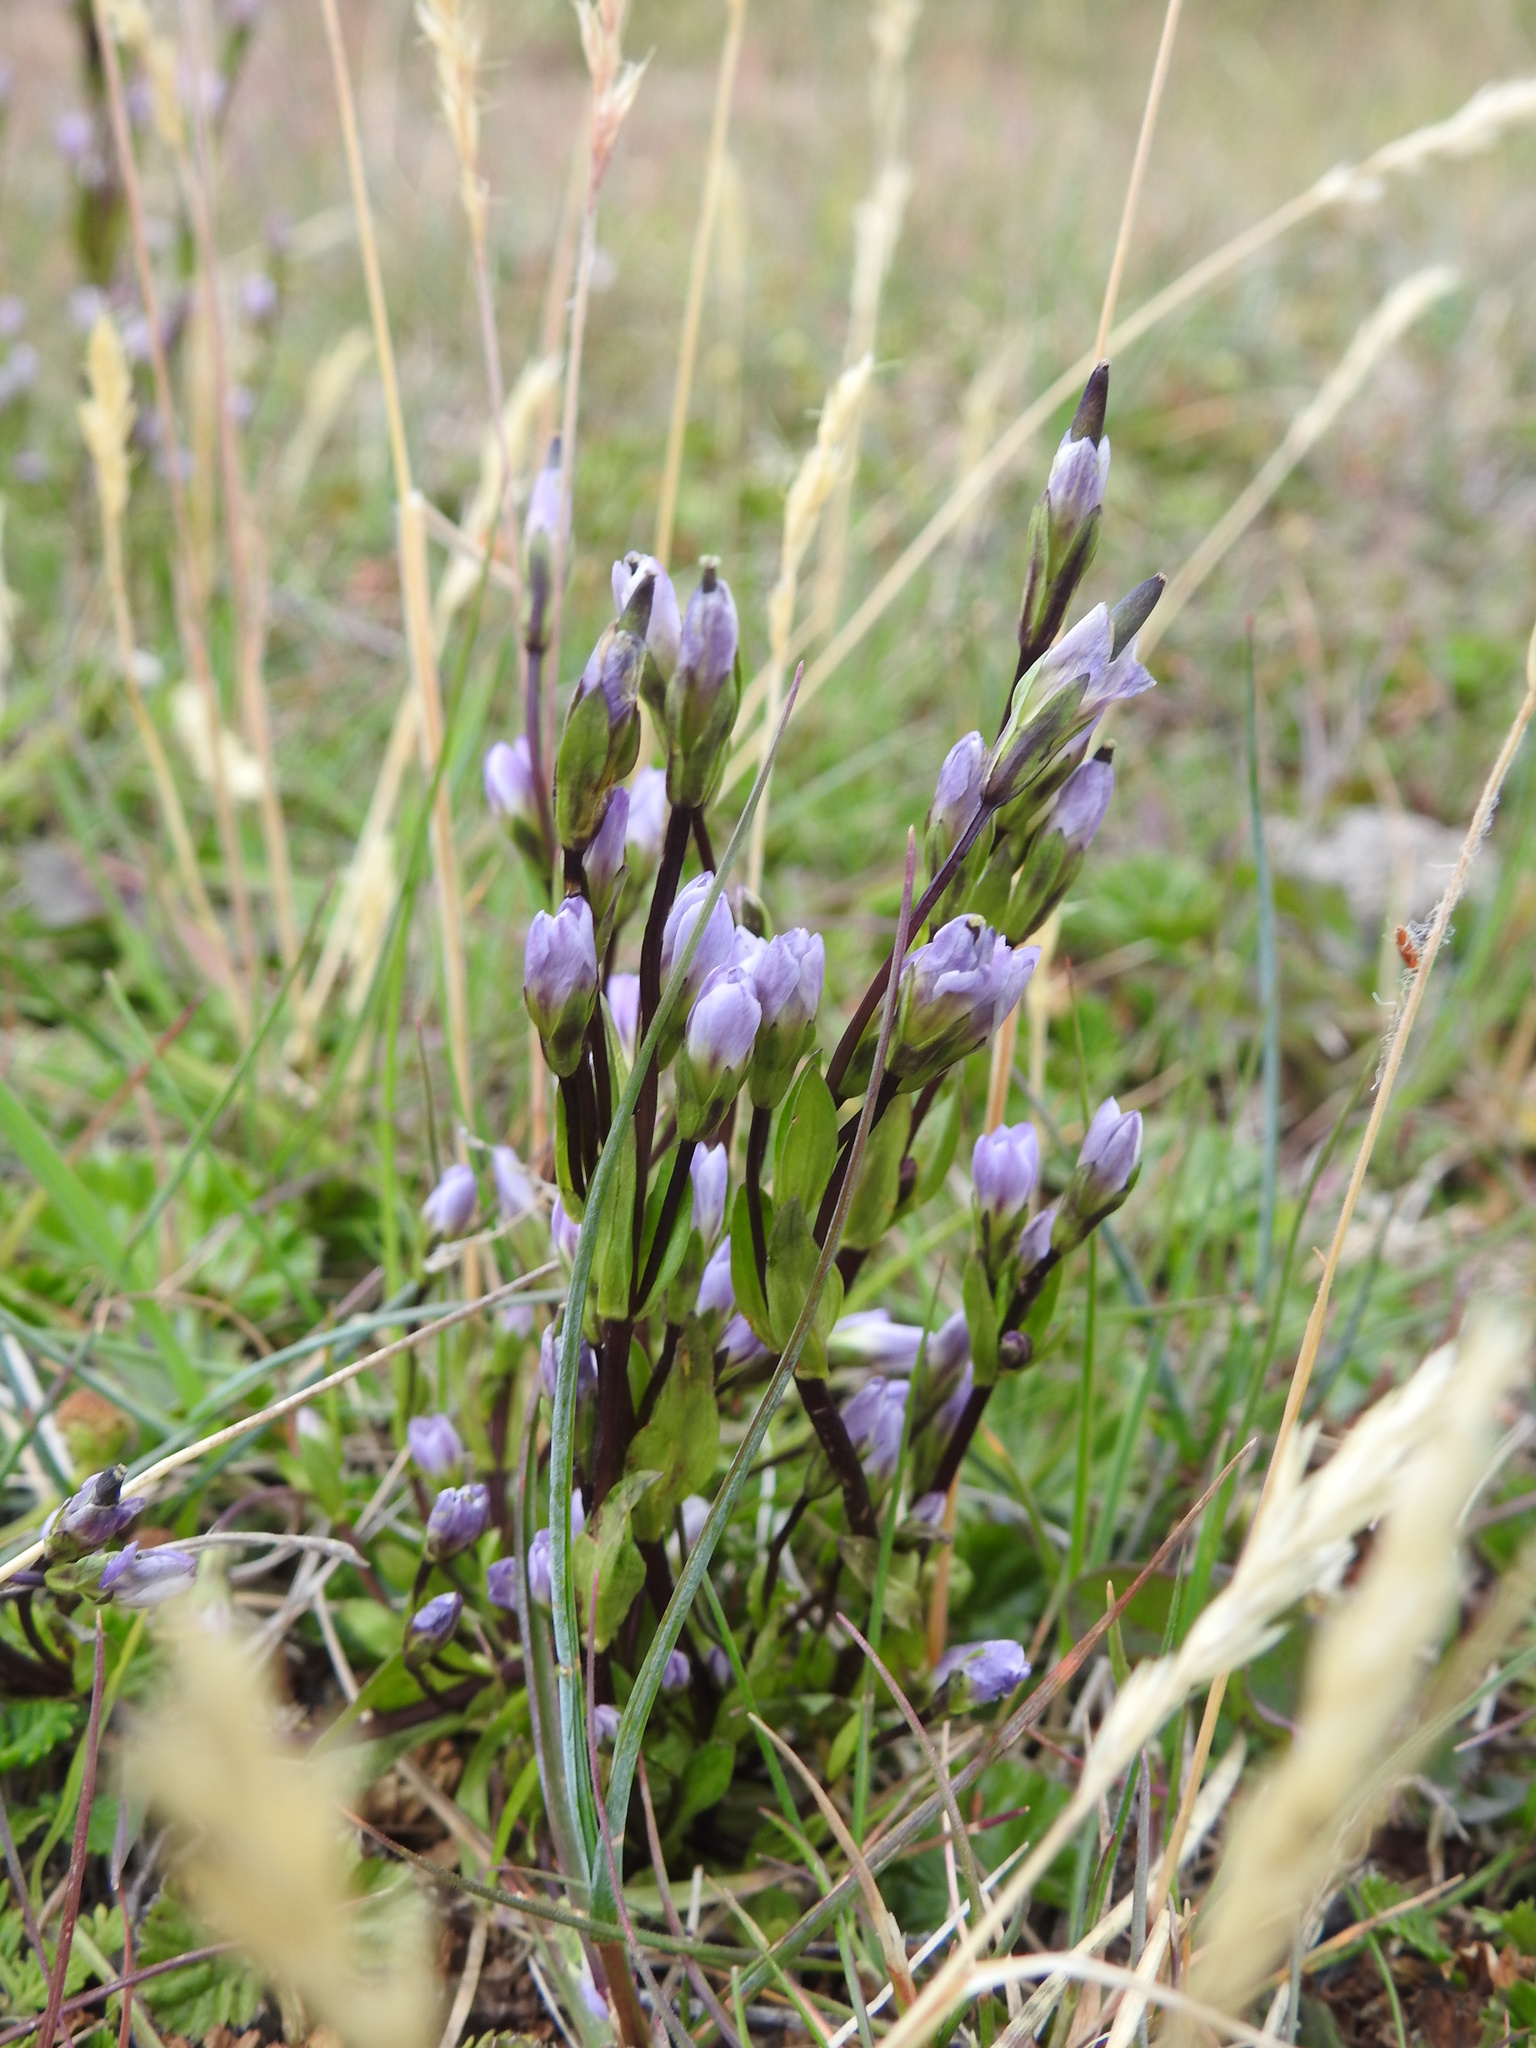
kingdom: Plantae
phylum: Tracheophyta
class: Magnoliopsida
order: Gentianales
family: Gentianaceae
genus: Gentianella
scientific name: Gentianella magellanica
